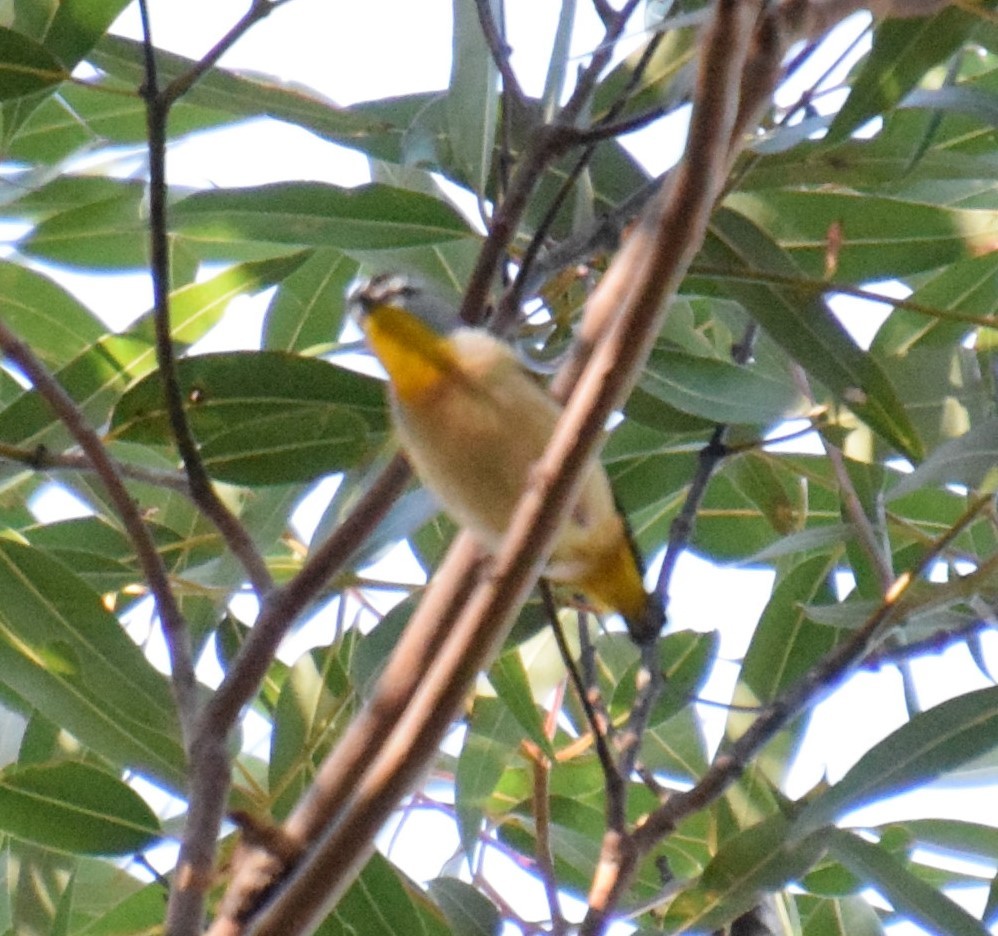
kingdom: Animalia
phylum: Chordata
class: Aves
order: Passeriformes
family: Pardalotidae
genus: Pardalotus
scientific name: Pardalotus punctatus
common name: Spotted pardalote
